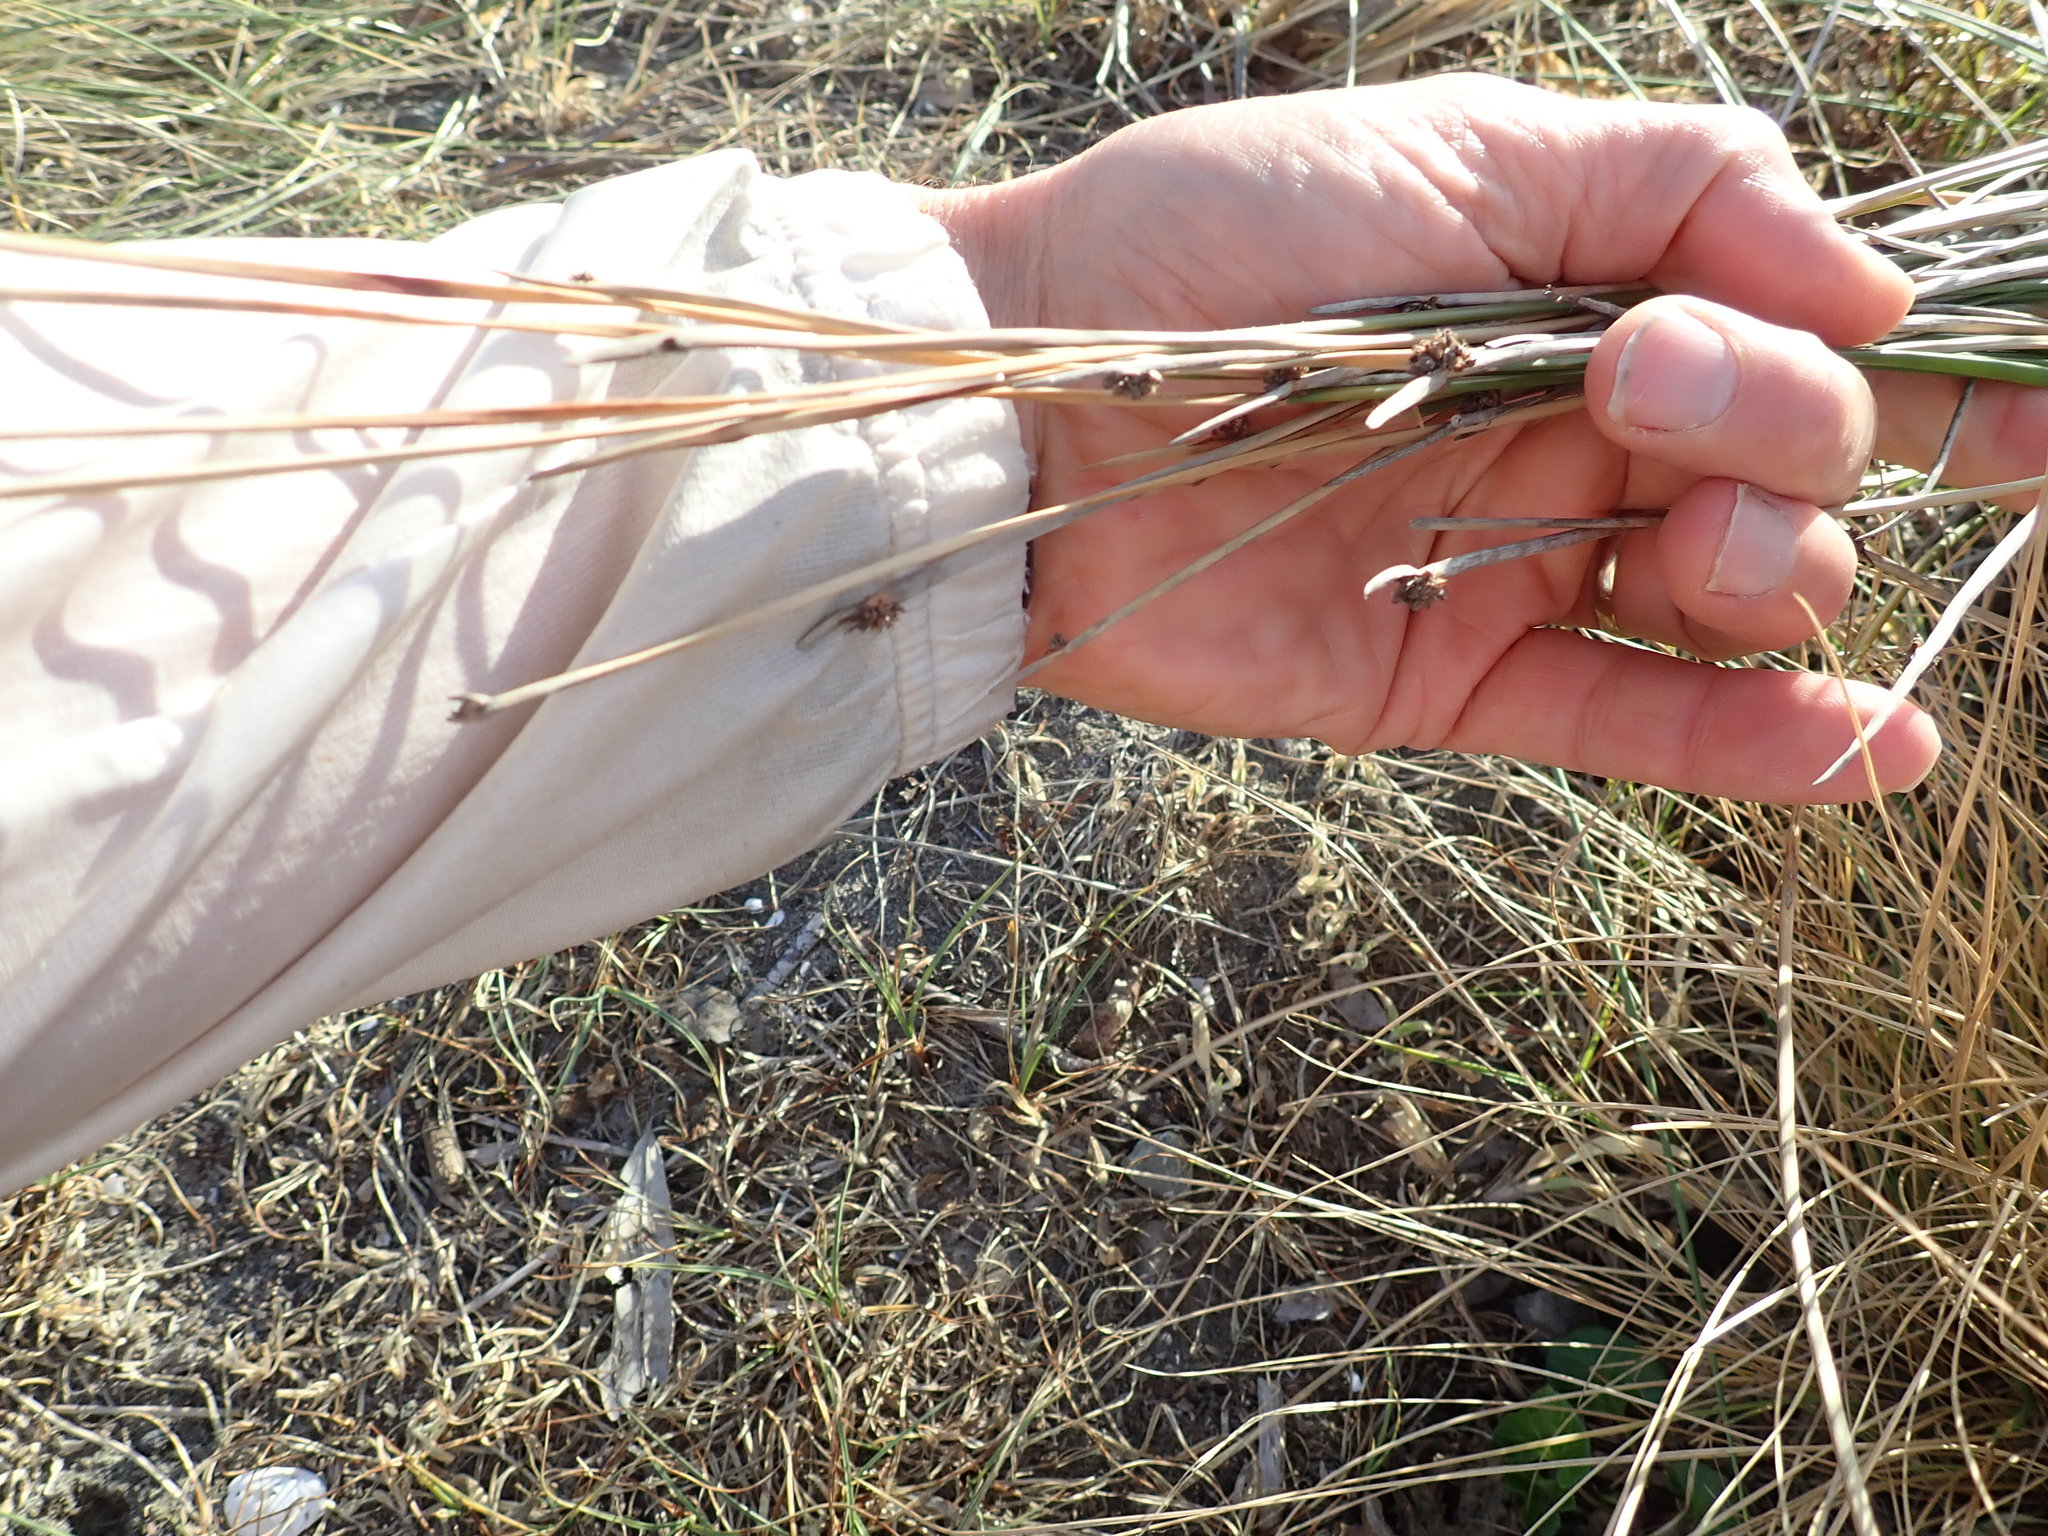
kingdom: Plantae
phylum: Tracheophyta
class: Liliopsida
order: Poales
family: Cyperaceae
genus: Ficinia
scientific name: Ficinia nodosa
